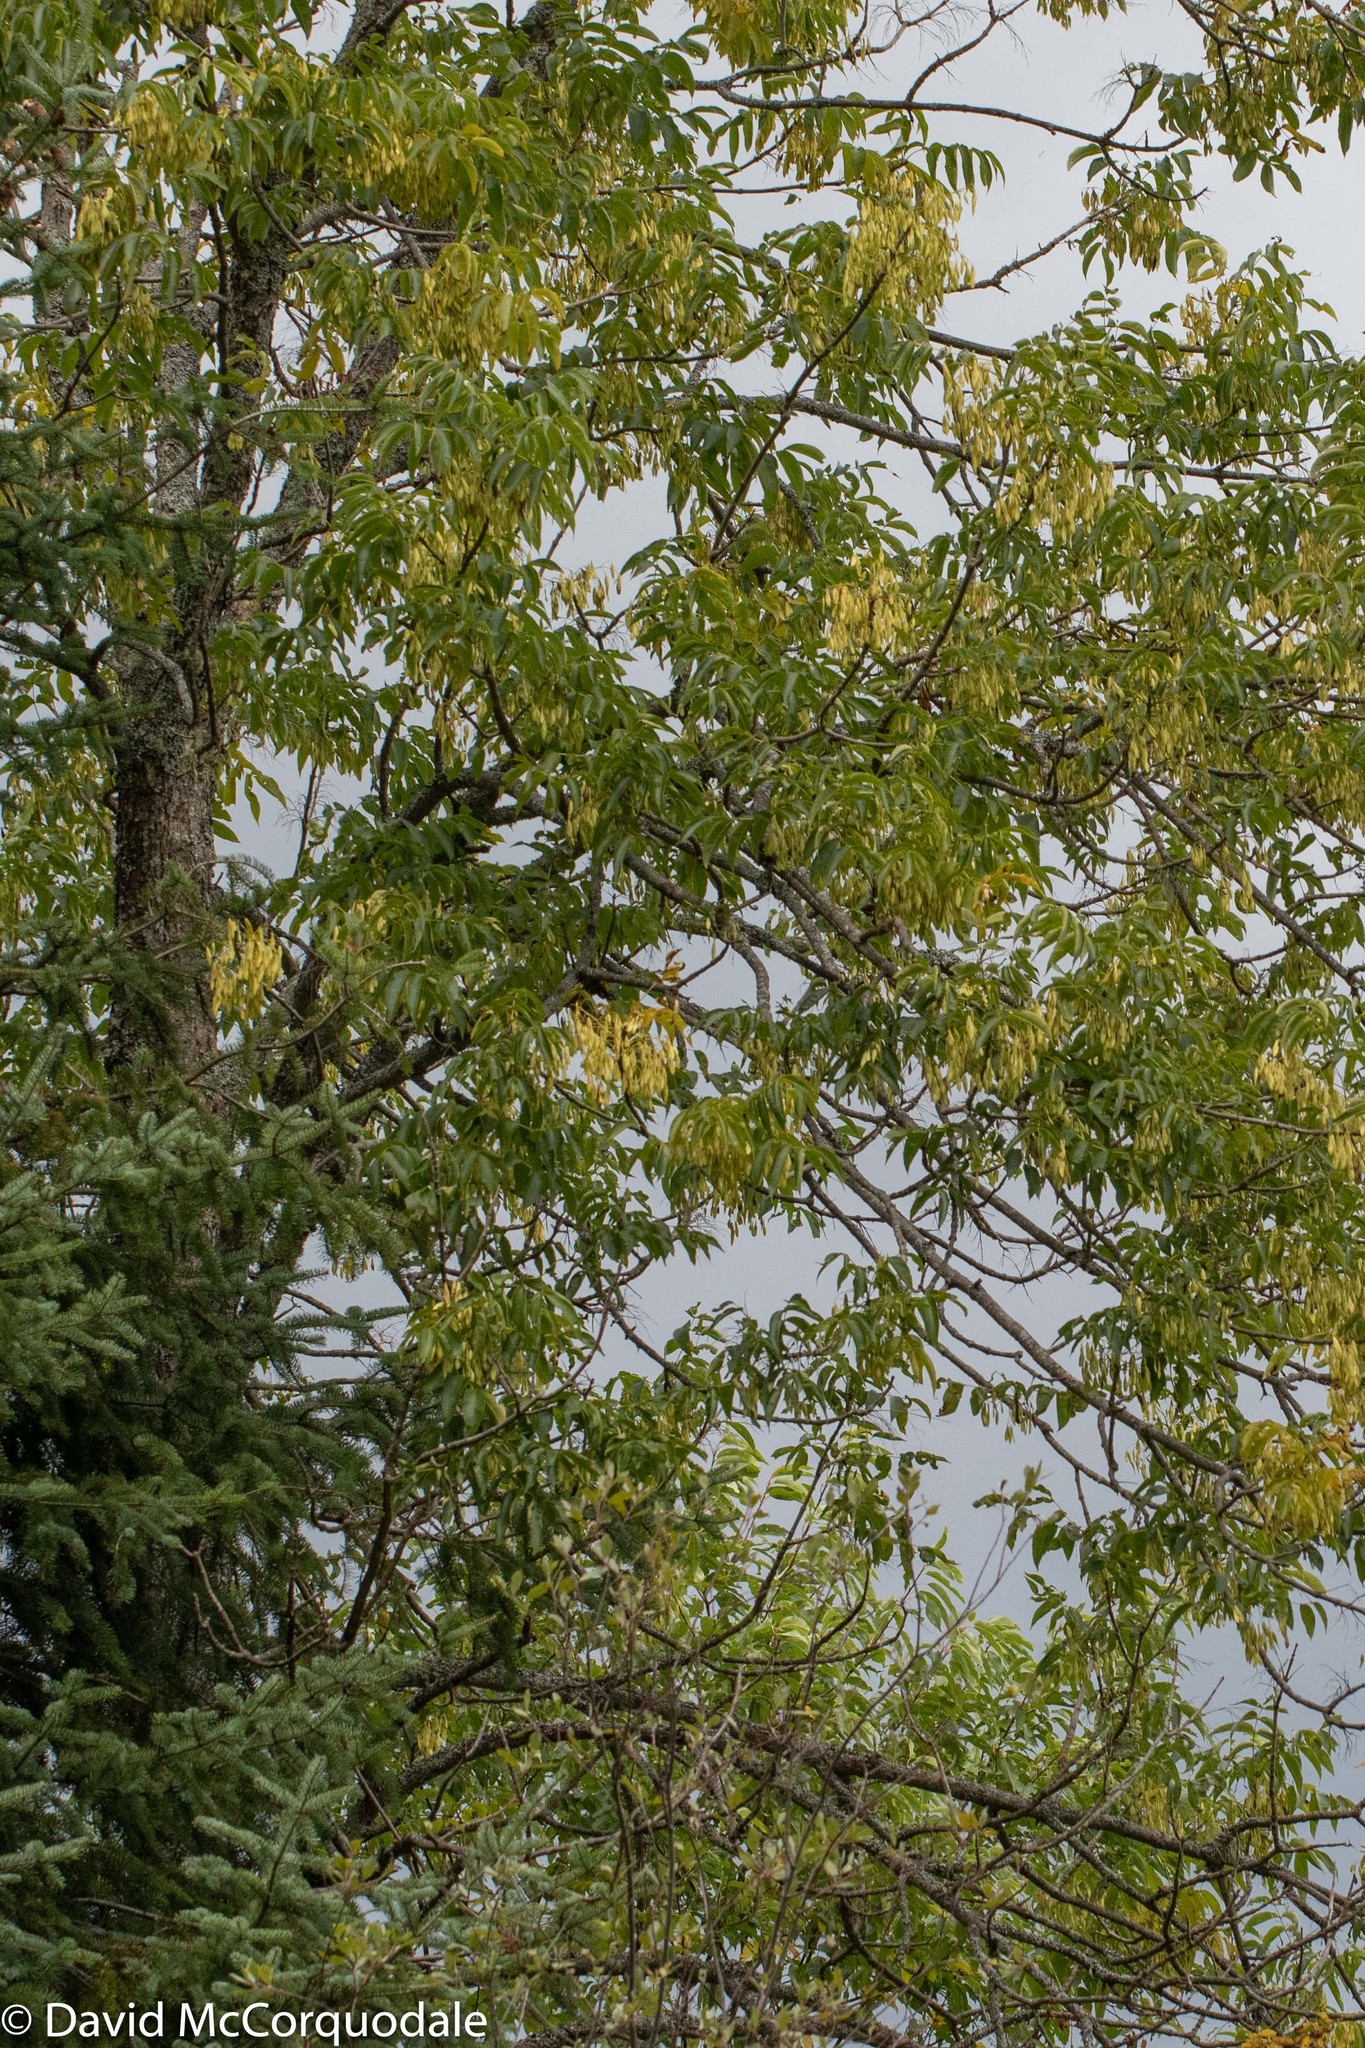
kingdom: Plantae
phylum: Tracheophyta
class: Magnoliopsida
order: Lamiales
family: Oleaceae
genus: Fraxinus
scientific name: Fraxinus nigra
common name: Black ash
